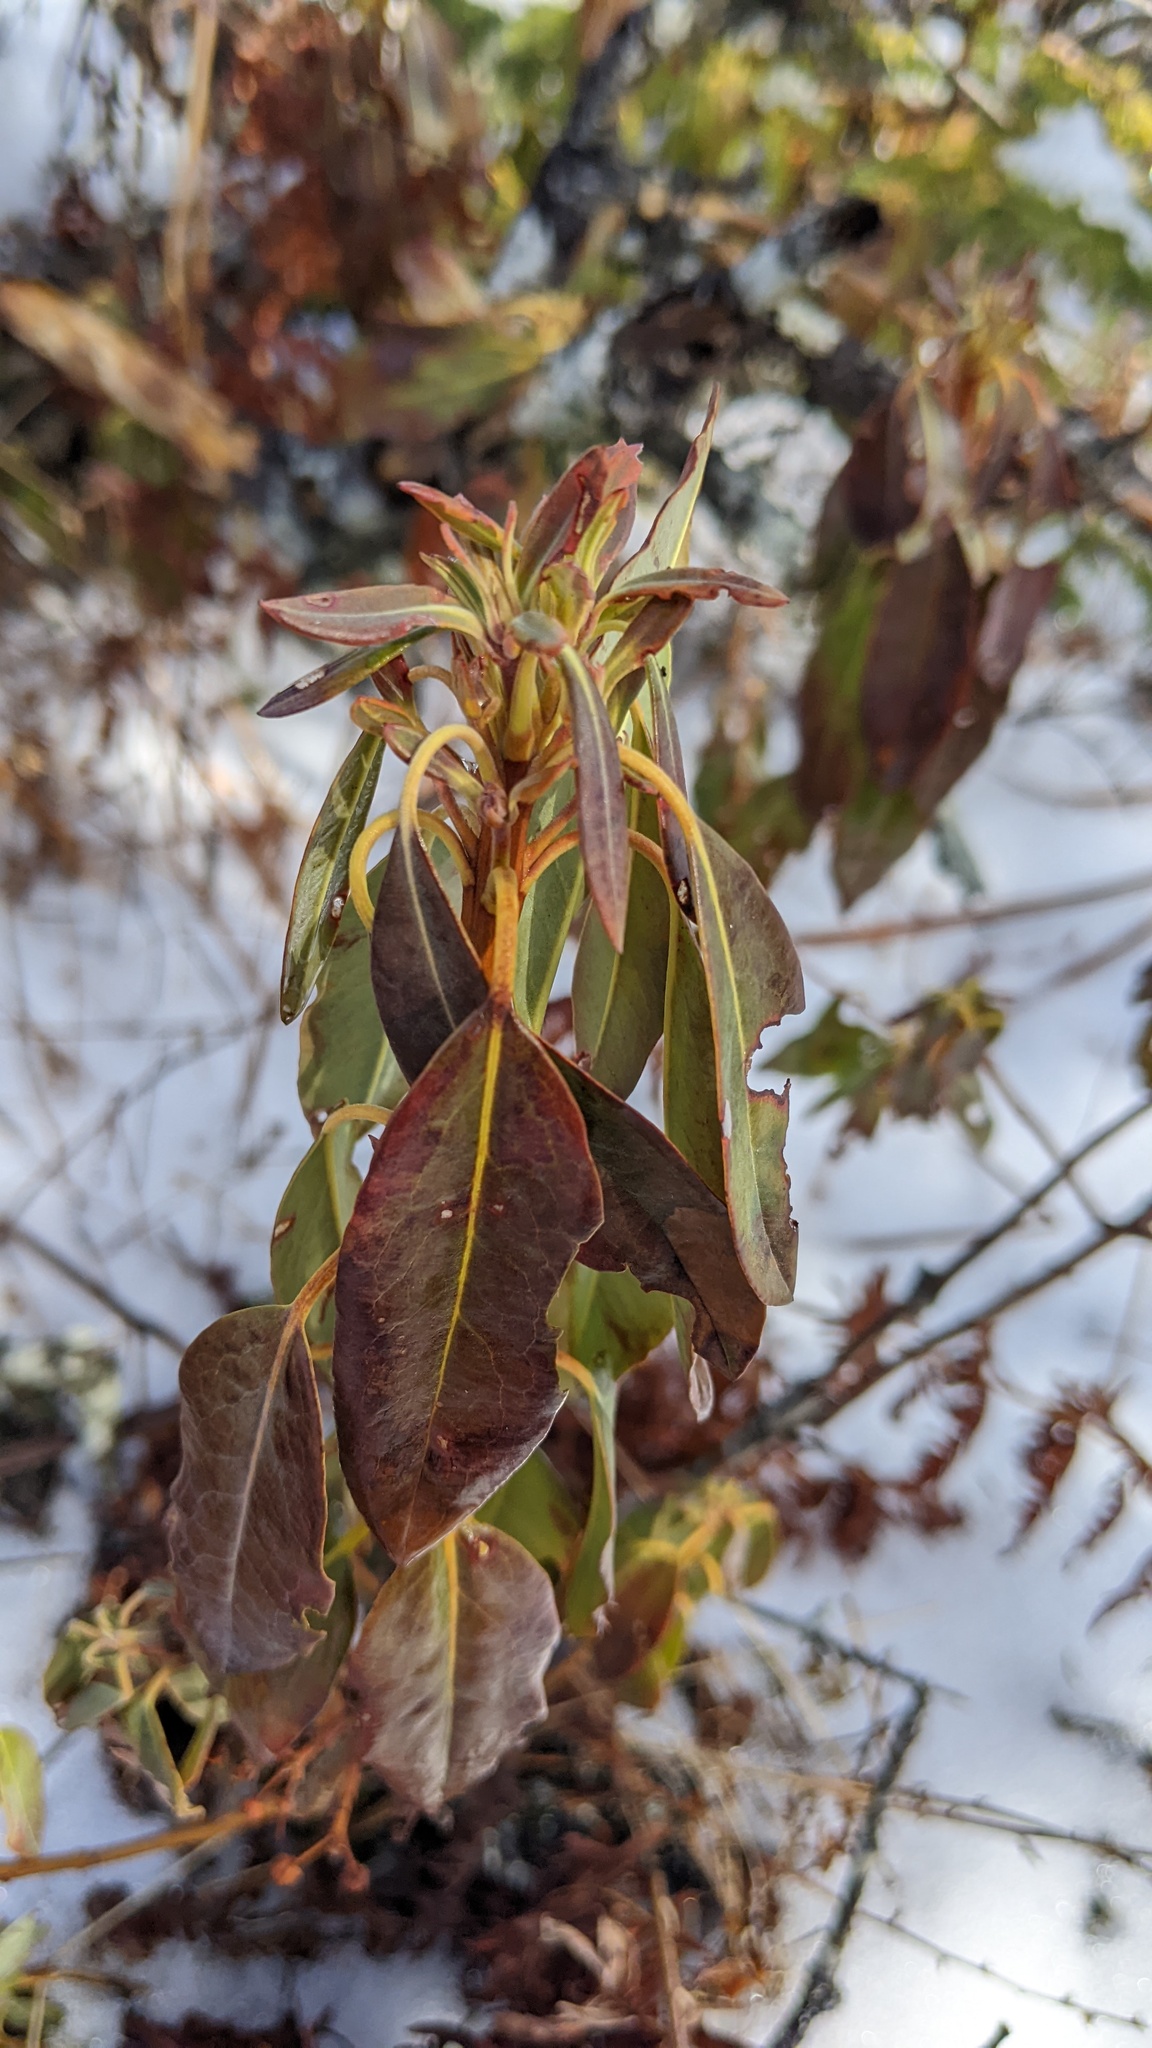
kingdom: Plantae
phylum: Tracheophyta
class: Magnoliopsida
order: Ericales
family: Ericaceae
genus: Kalmia
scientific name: Kalmia angustifolia
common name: Sheep-laurel
